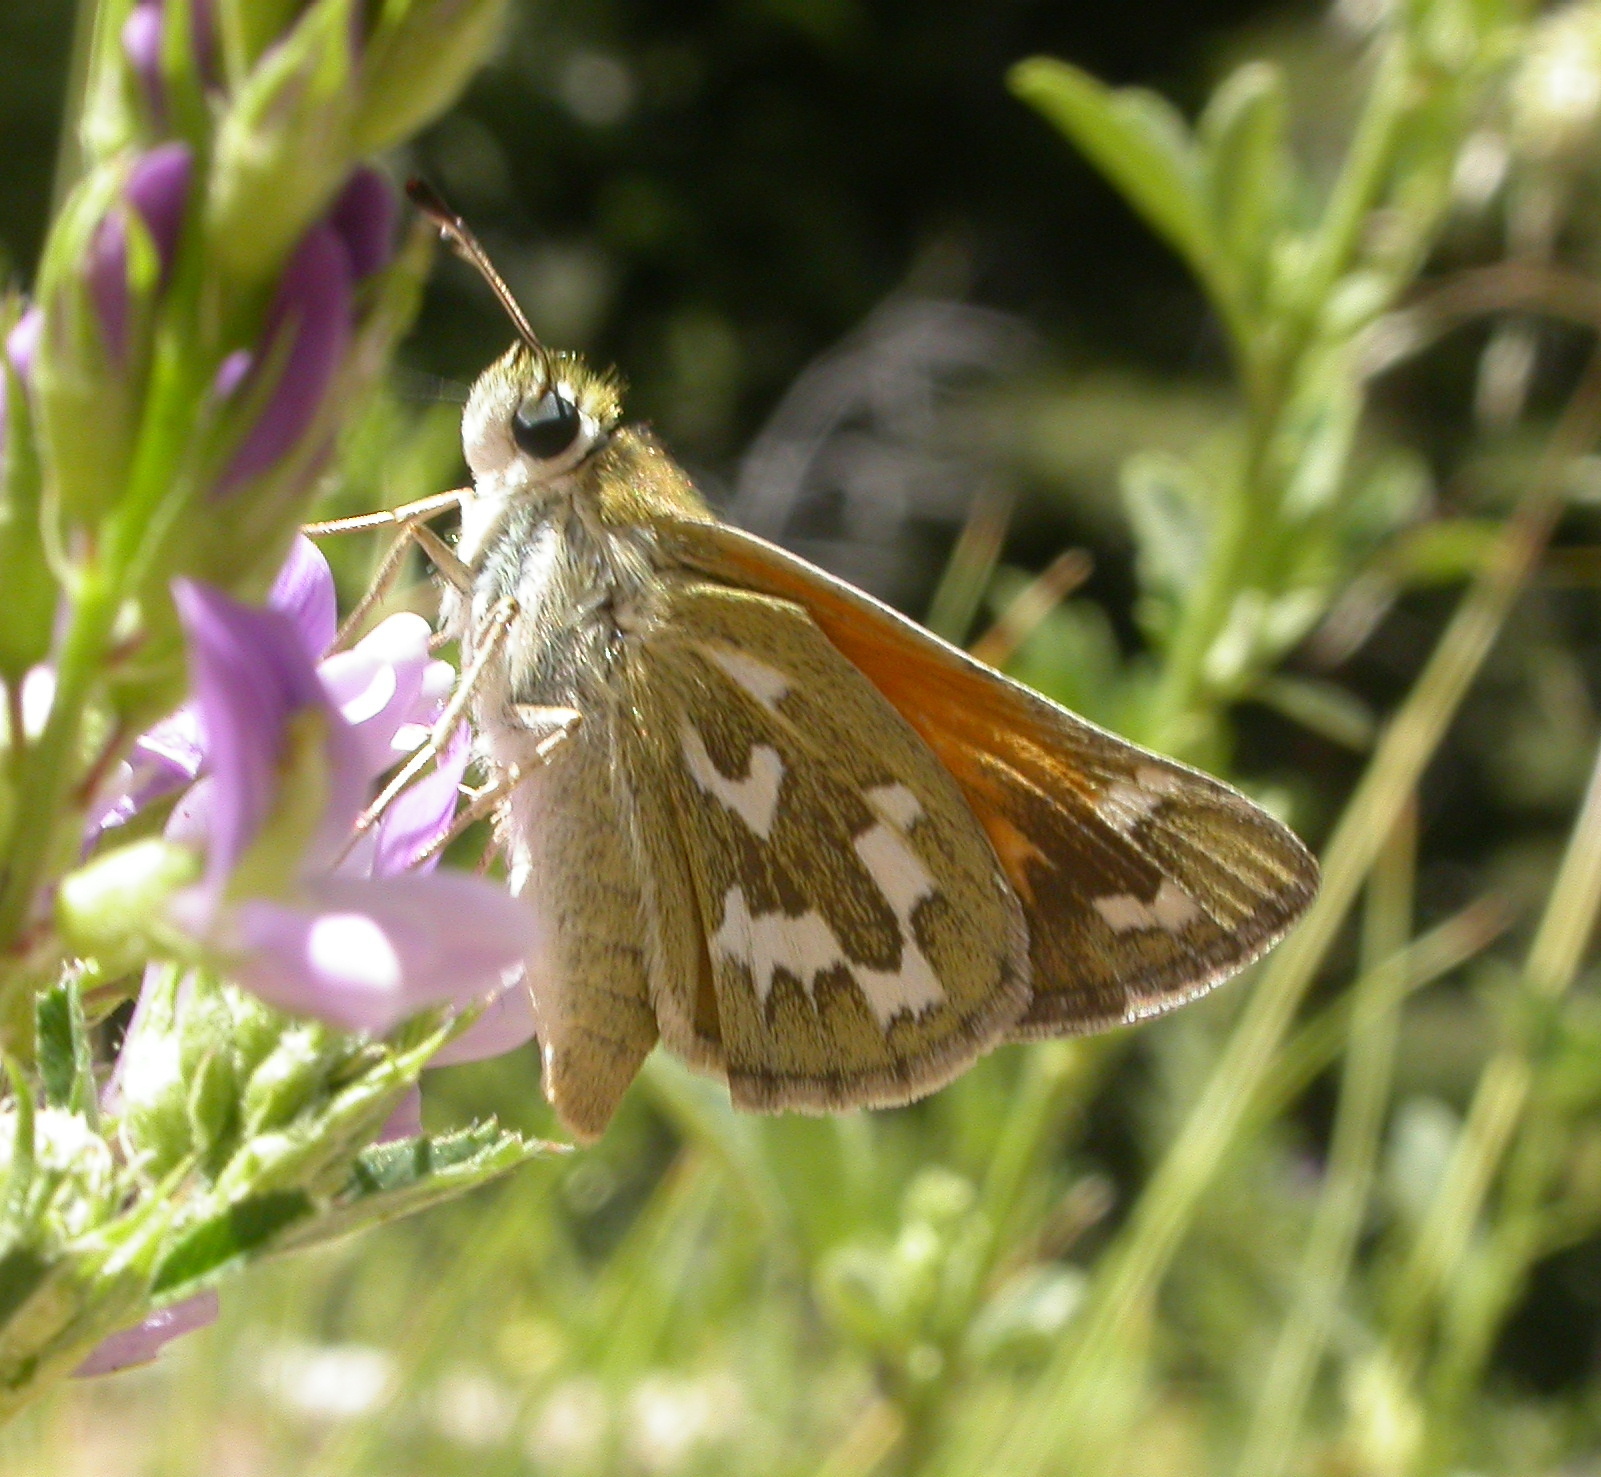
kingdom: Animalia
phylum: Arthropoda
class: Insecta
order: Lepidoptera
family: Hesperiidae
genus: Hesperia
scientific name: Hesperia comma
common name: Common branded skipper
